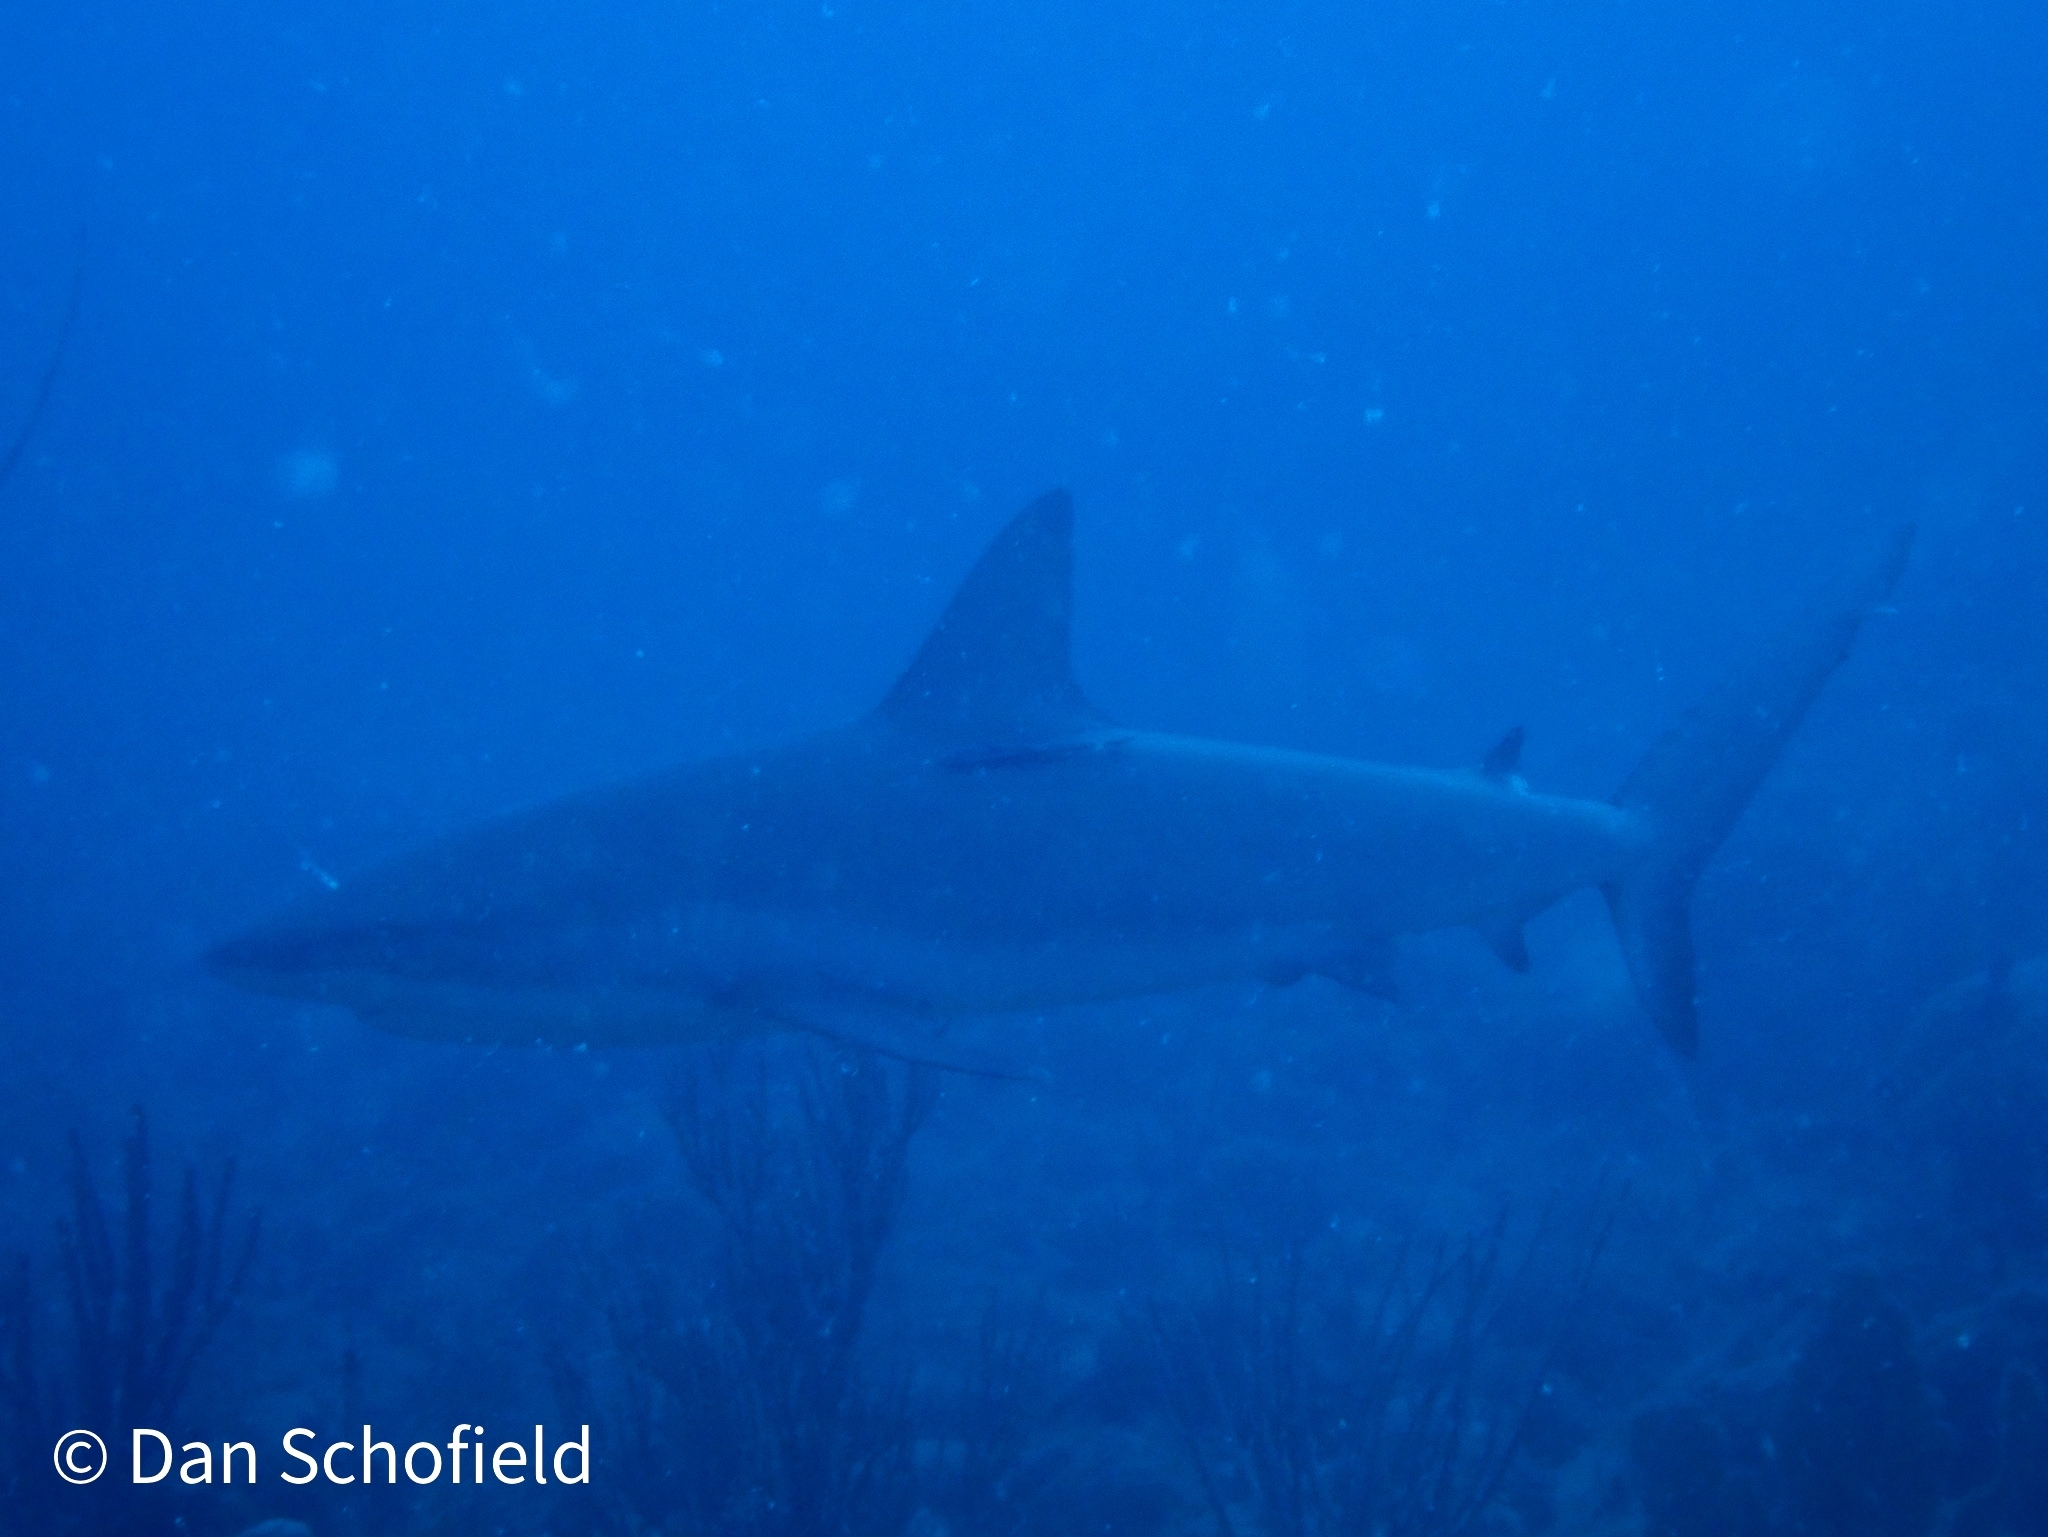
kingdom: Animalia
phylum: Chordata
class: Elasmobranchii
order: Carcharhiniformes
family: Carcharhinidae
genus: Carcharhinus
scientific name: Carcharhinus perezii
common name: Reef shark
